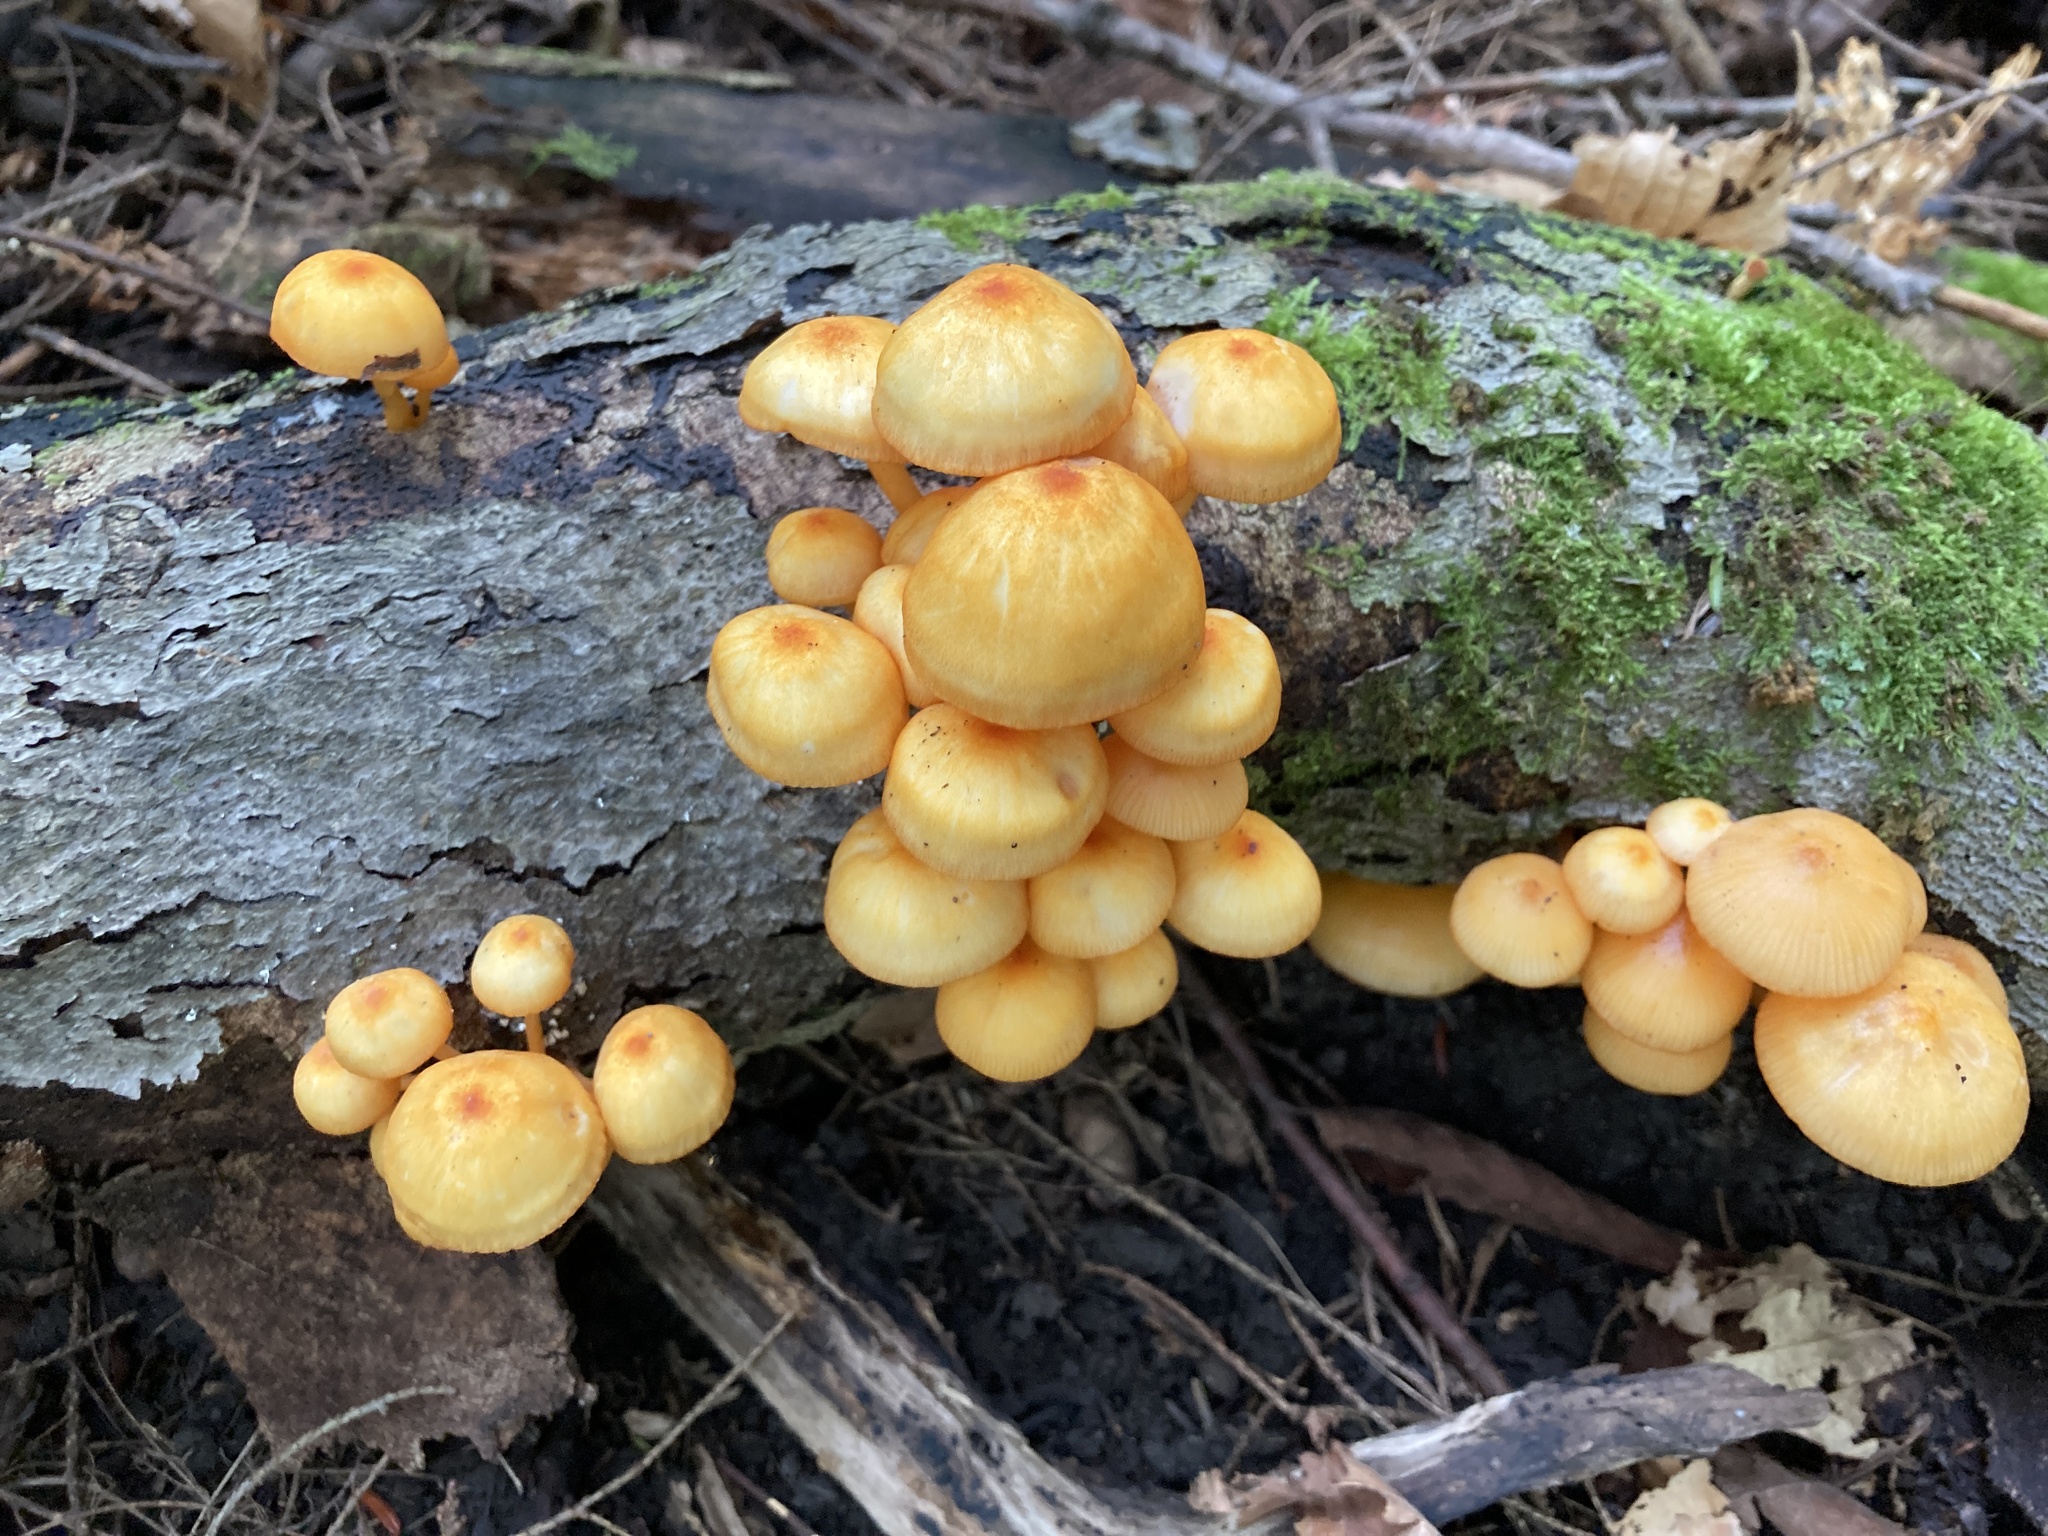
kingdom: Fungi
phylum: Basidiomycota
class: Agaricomycetes
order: Agaricales
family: Mycenaceae
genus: Mycena
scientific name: Mycena leaiana
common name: Orange mycena
